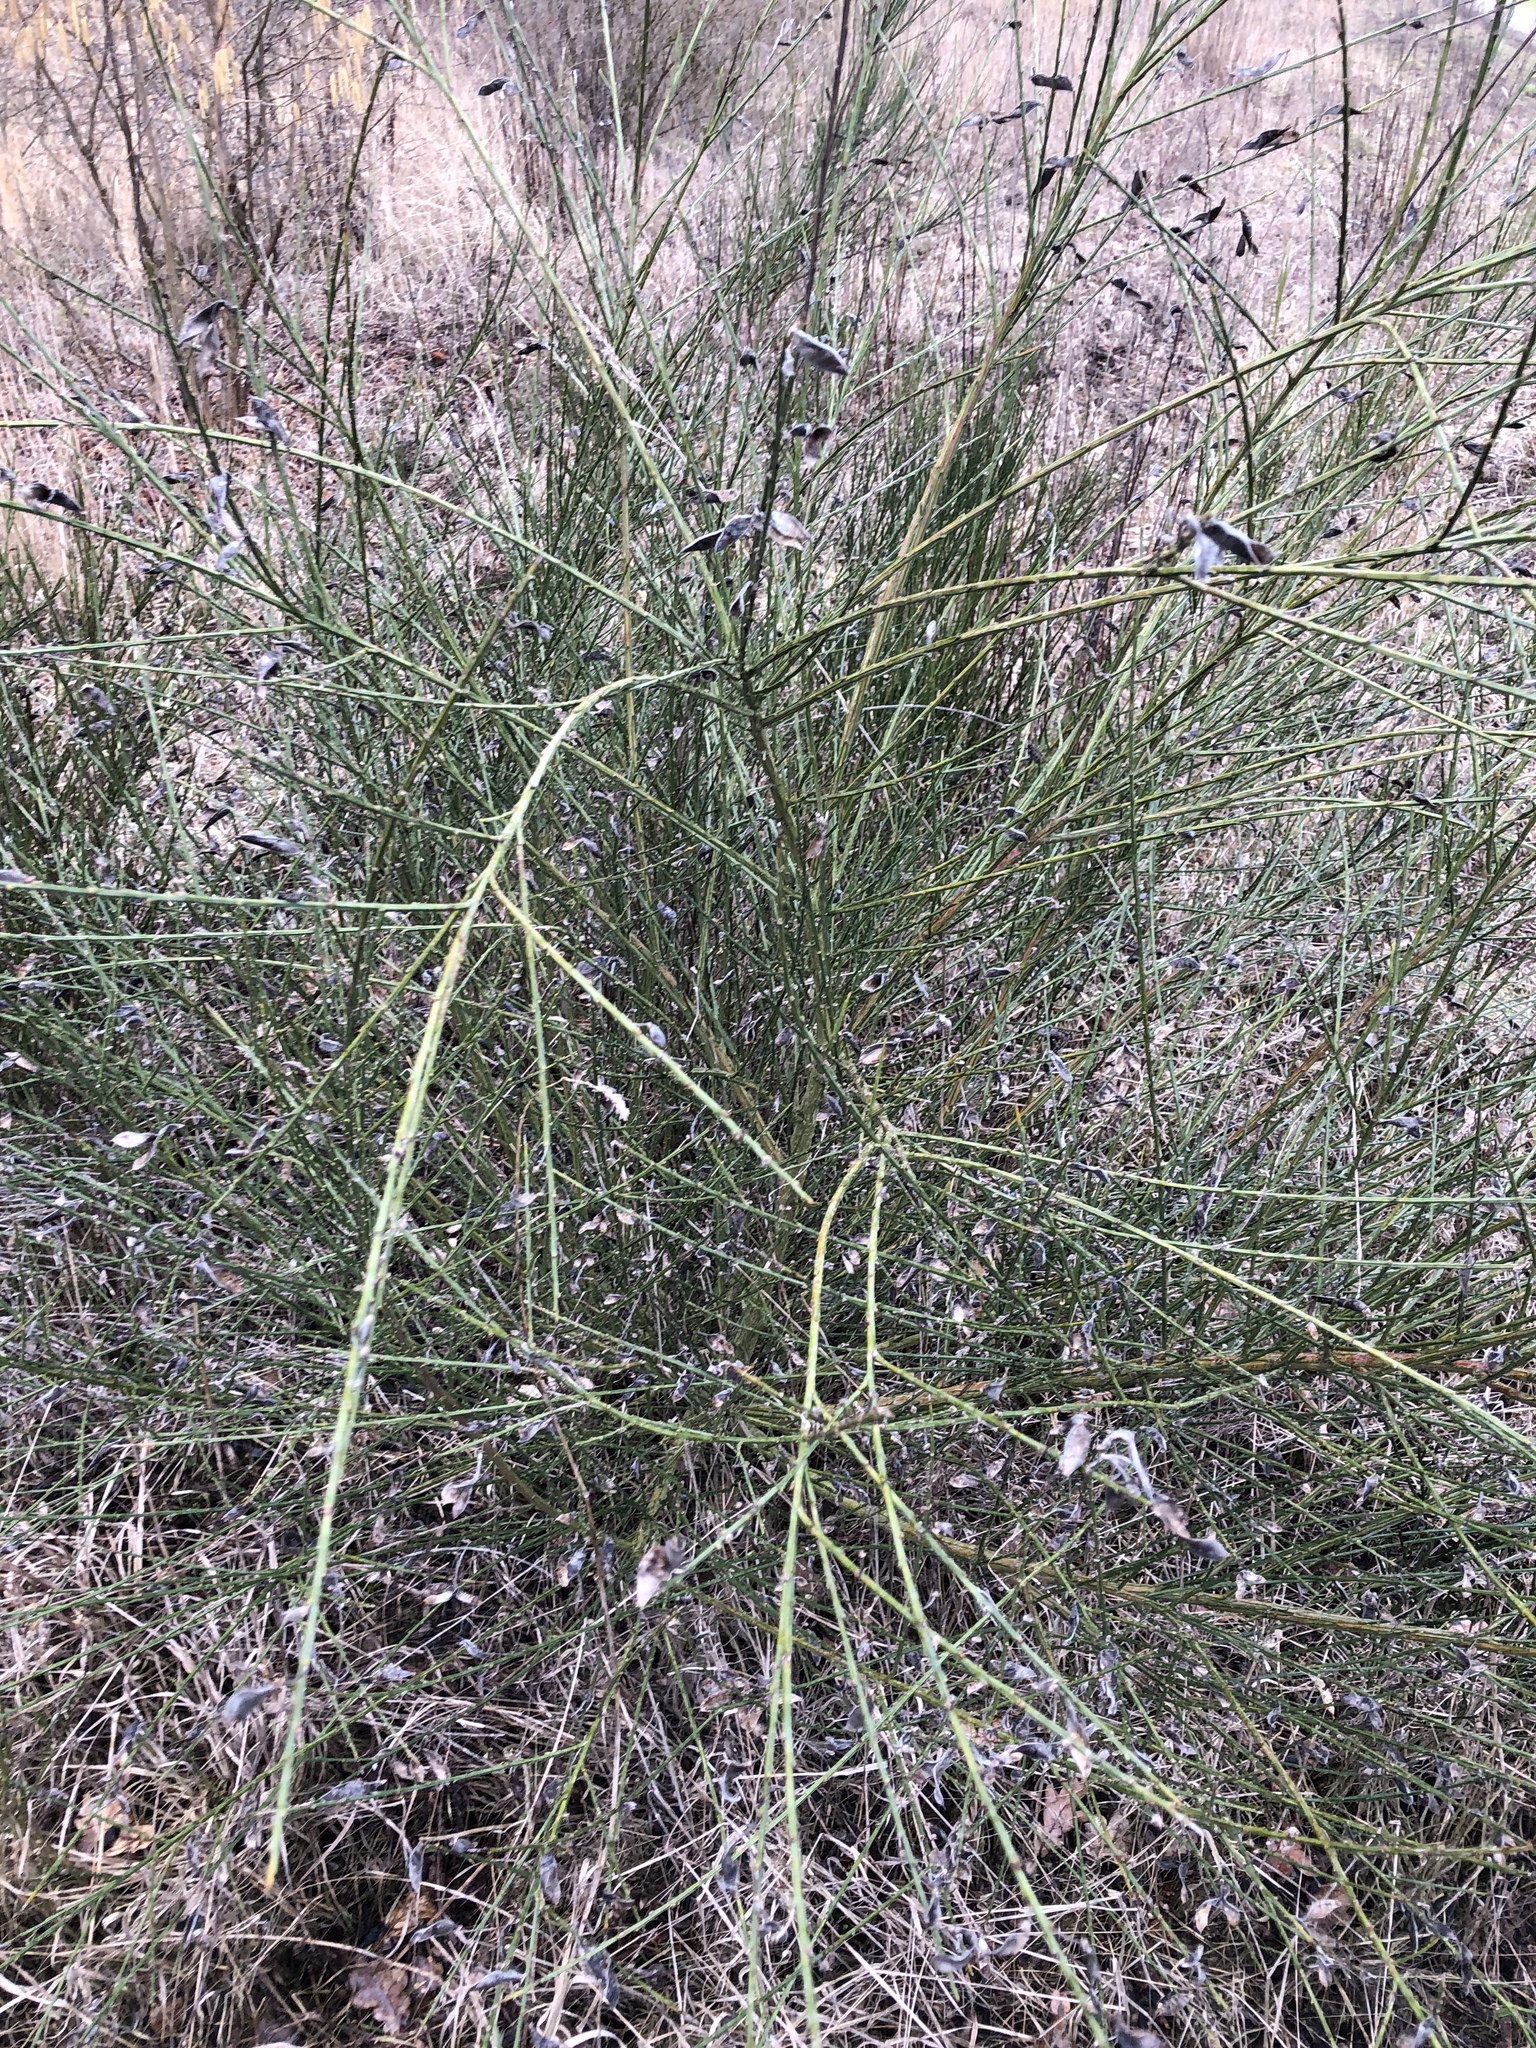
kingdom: Plantae
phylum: Tracheophyta
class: Magnoliopsida
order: Fabales
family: Fabaceae
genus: Cytisus
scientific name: Cytisus scoparius
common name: Scotch broom
